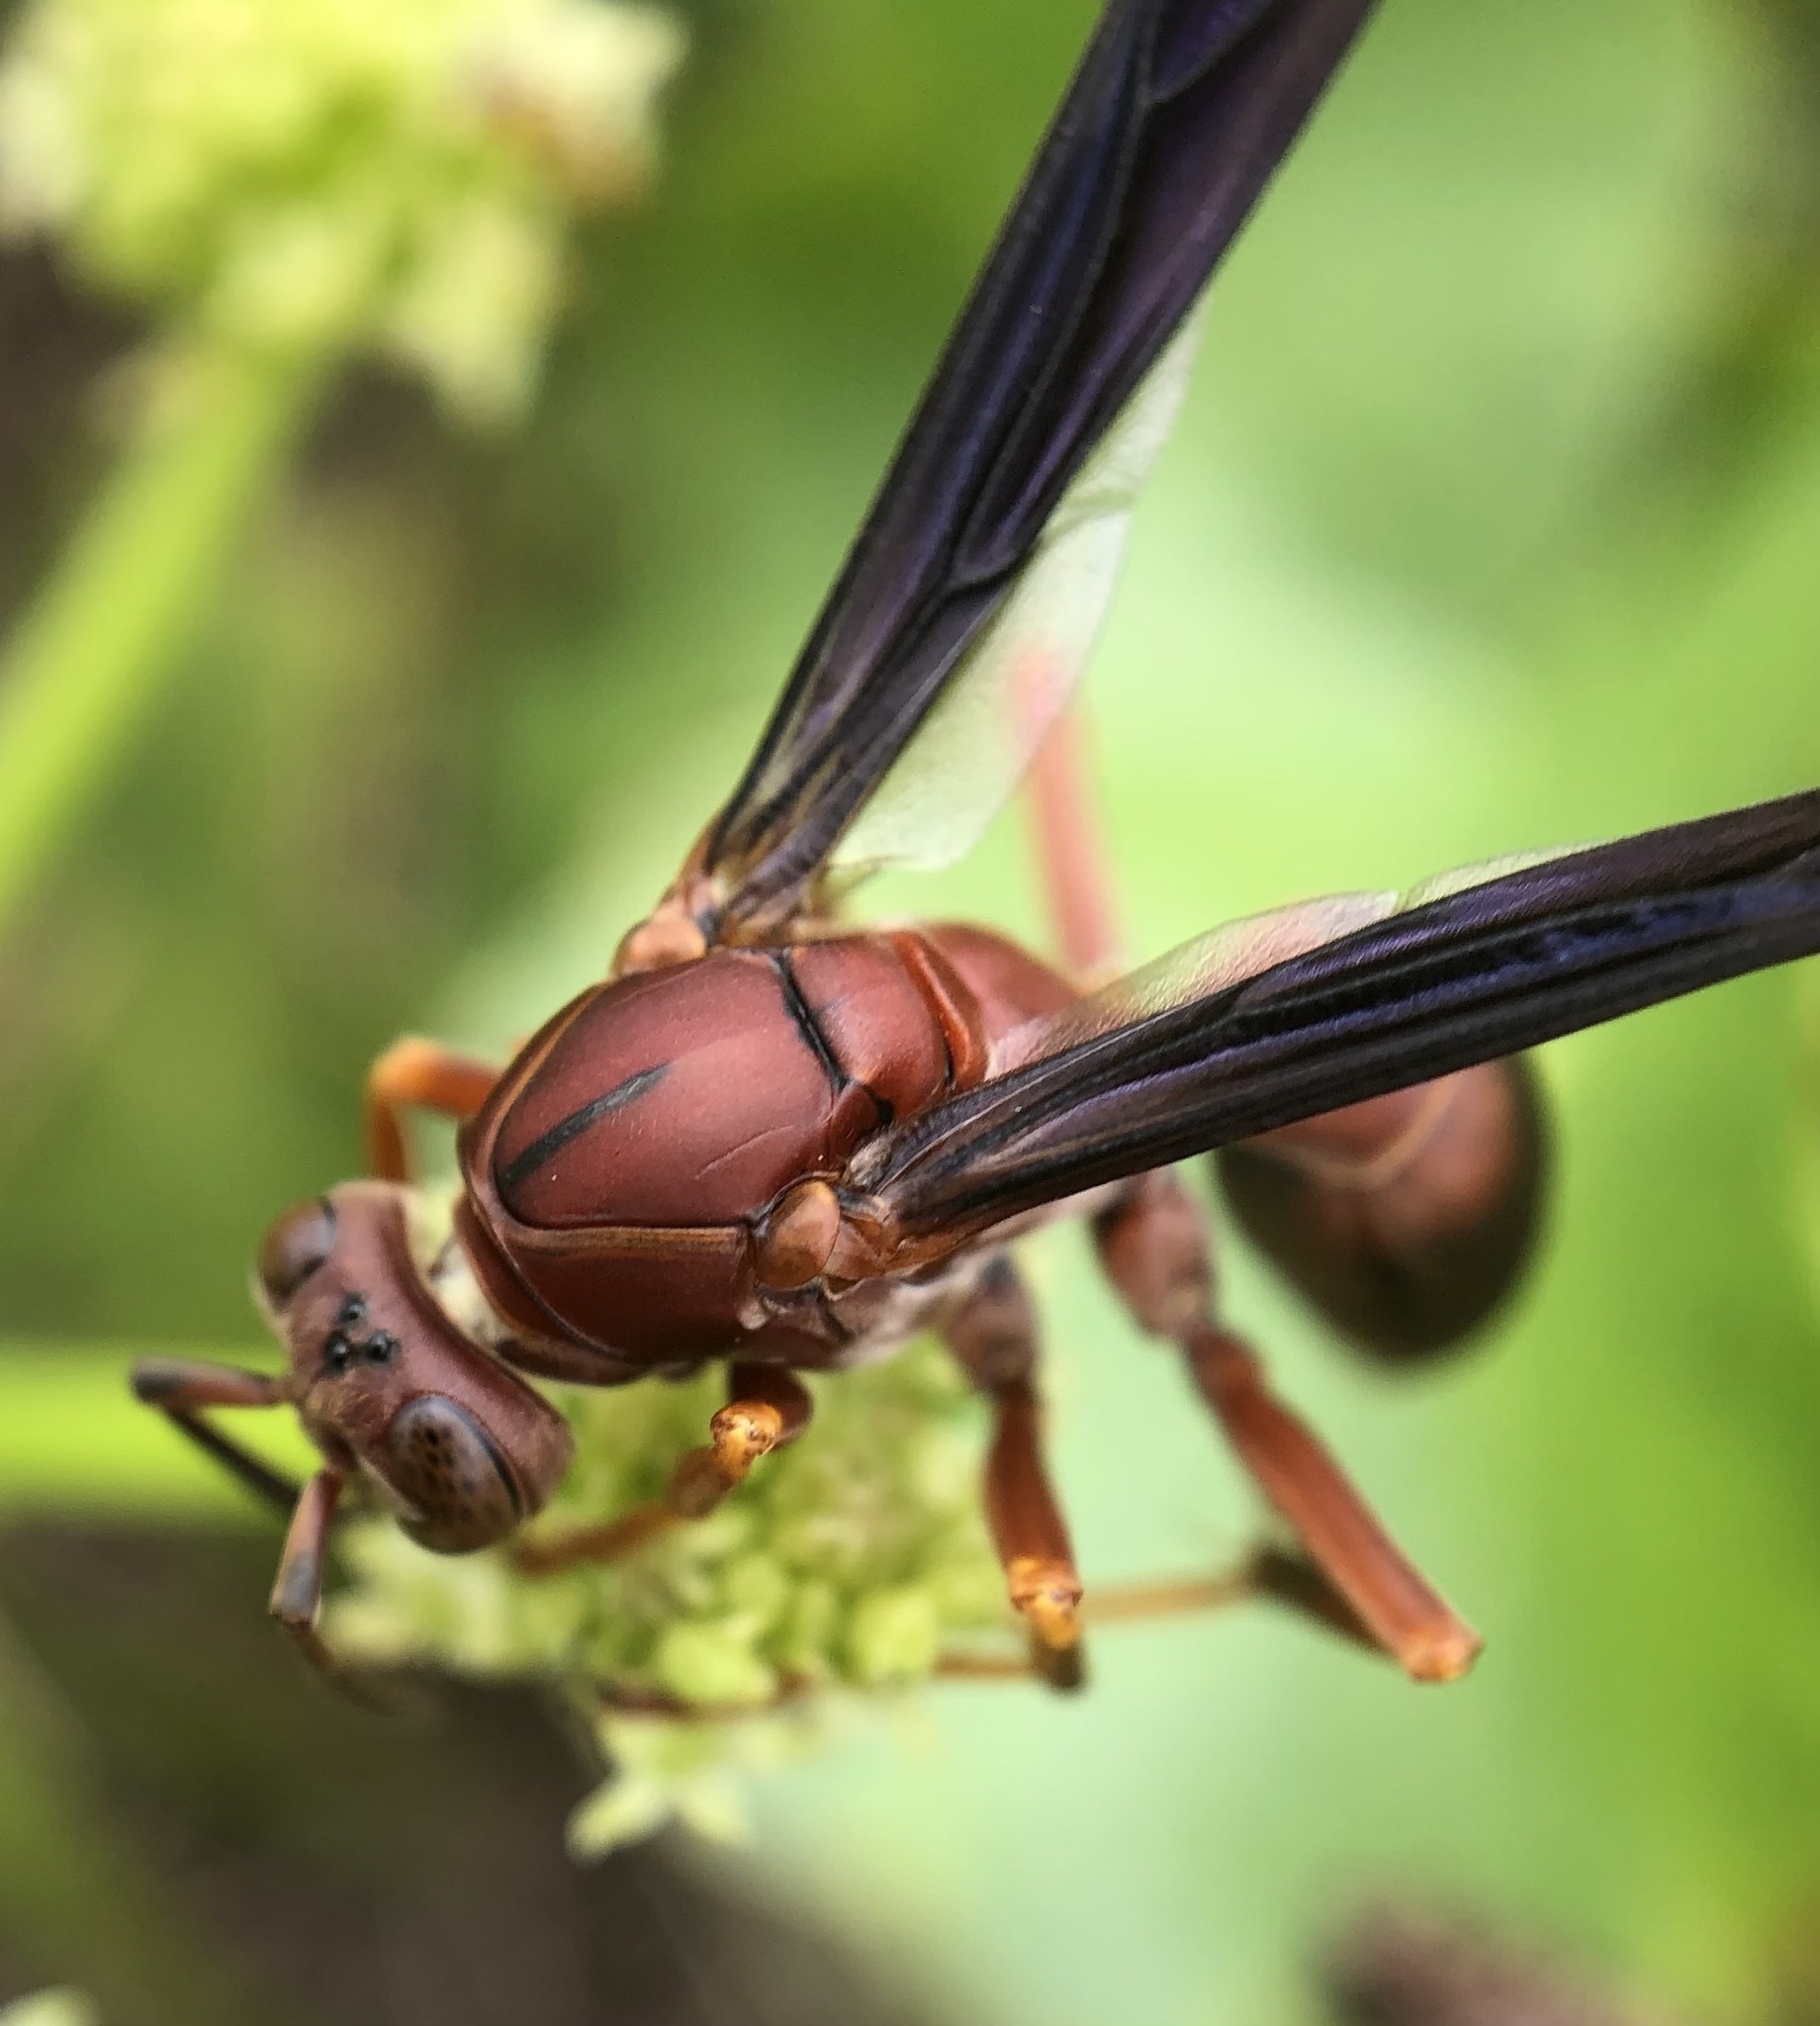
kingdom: Animalia
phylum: Arthropoda
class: Insecta
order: Hymenoptera
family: Eumenidae
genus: Polistes
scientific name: Polistes metricus
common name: Metric paper wasp
